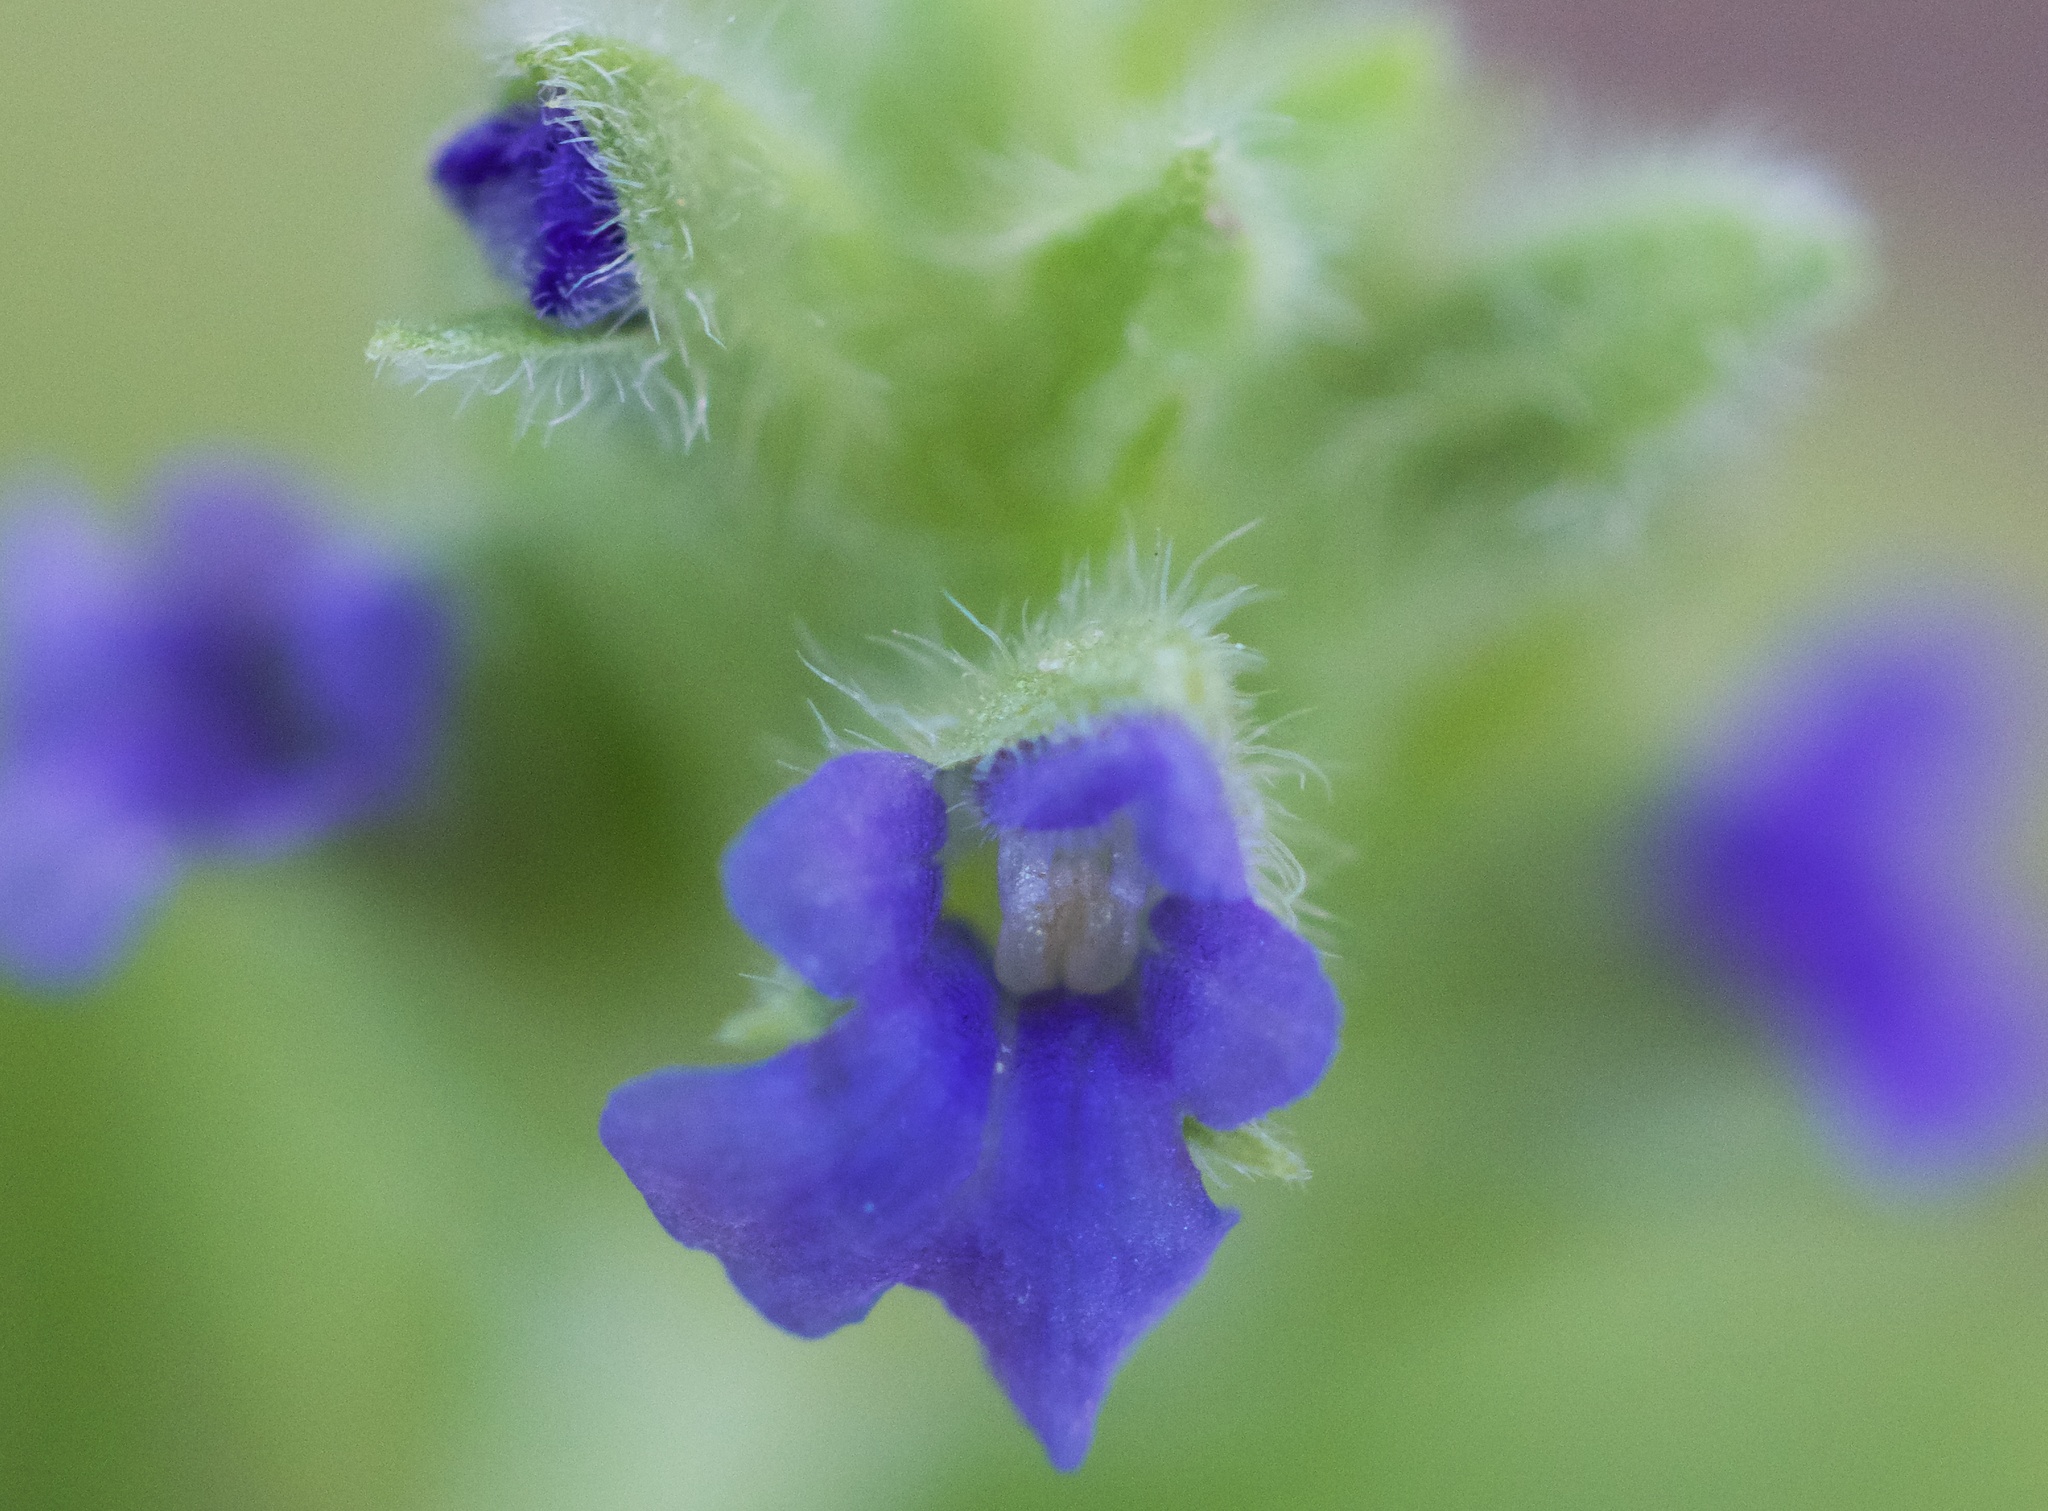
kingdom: Plantae
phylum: Tracheophyta
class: Magnoliopsida
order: Lamiales
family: Lamiaceae
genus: Salvia
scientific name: Salvia hispanica
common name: Chia
